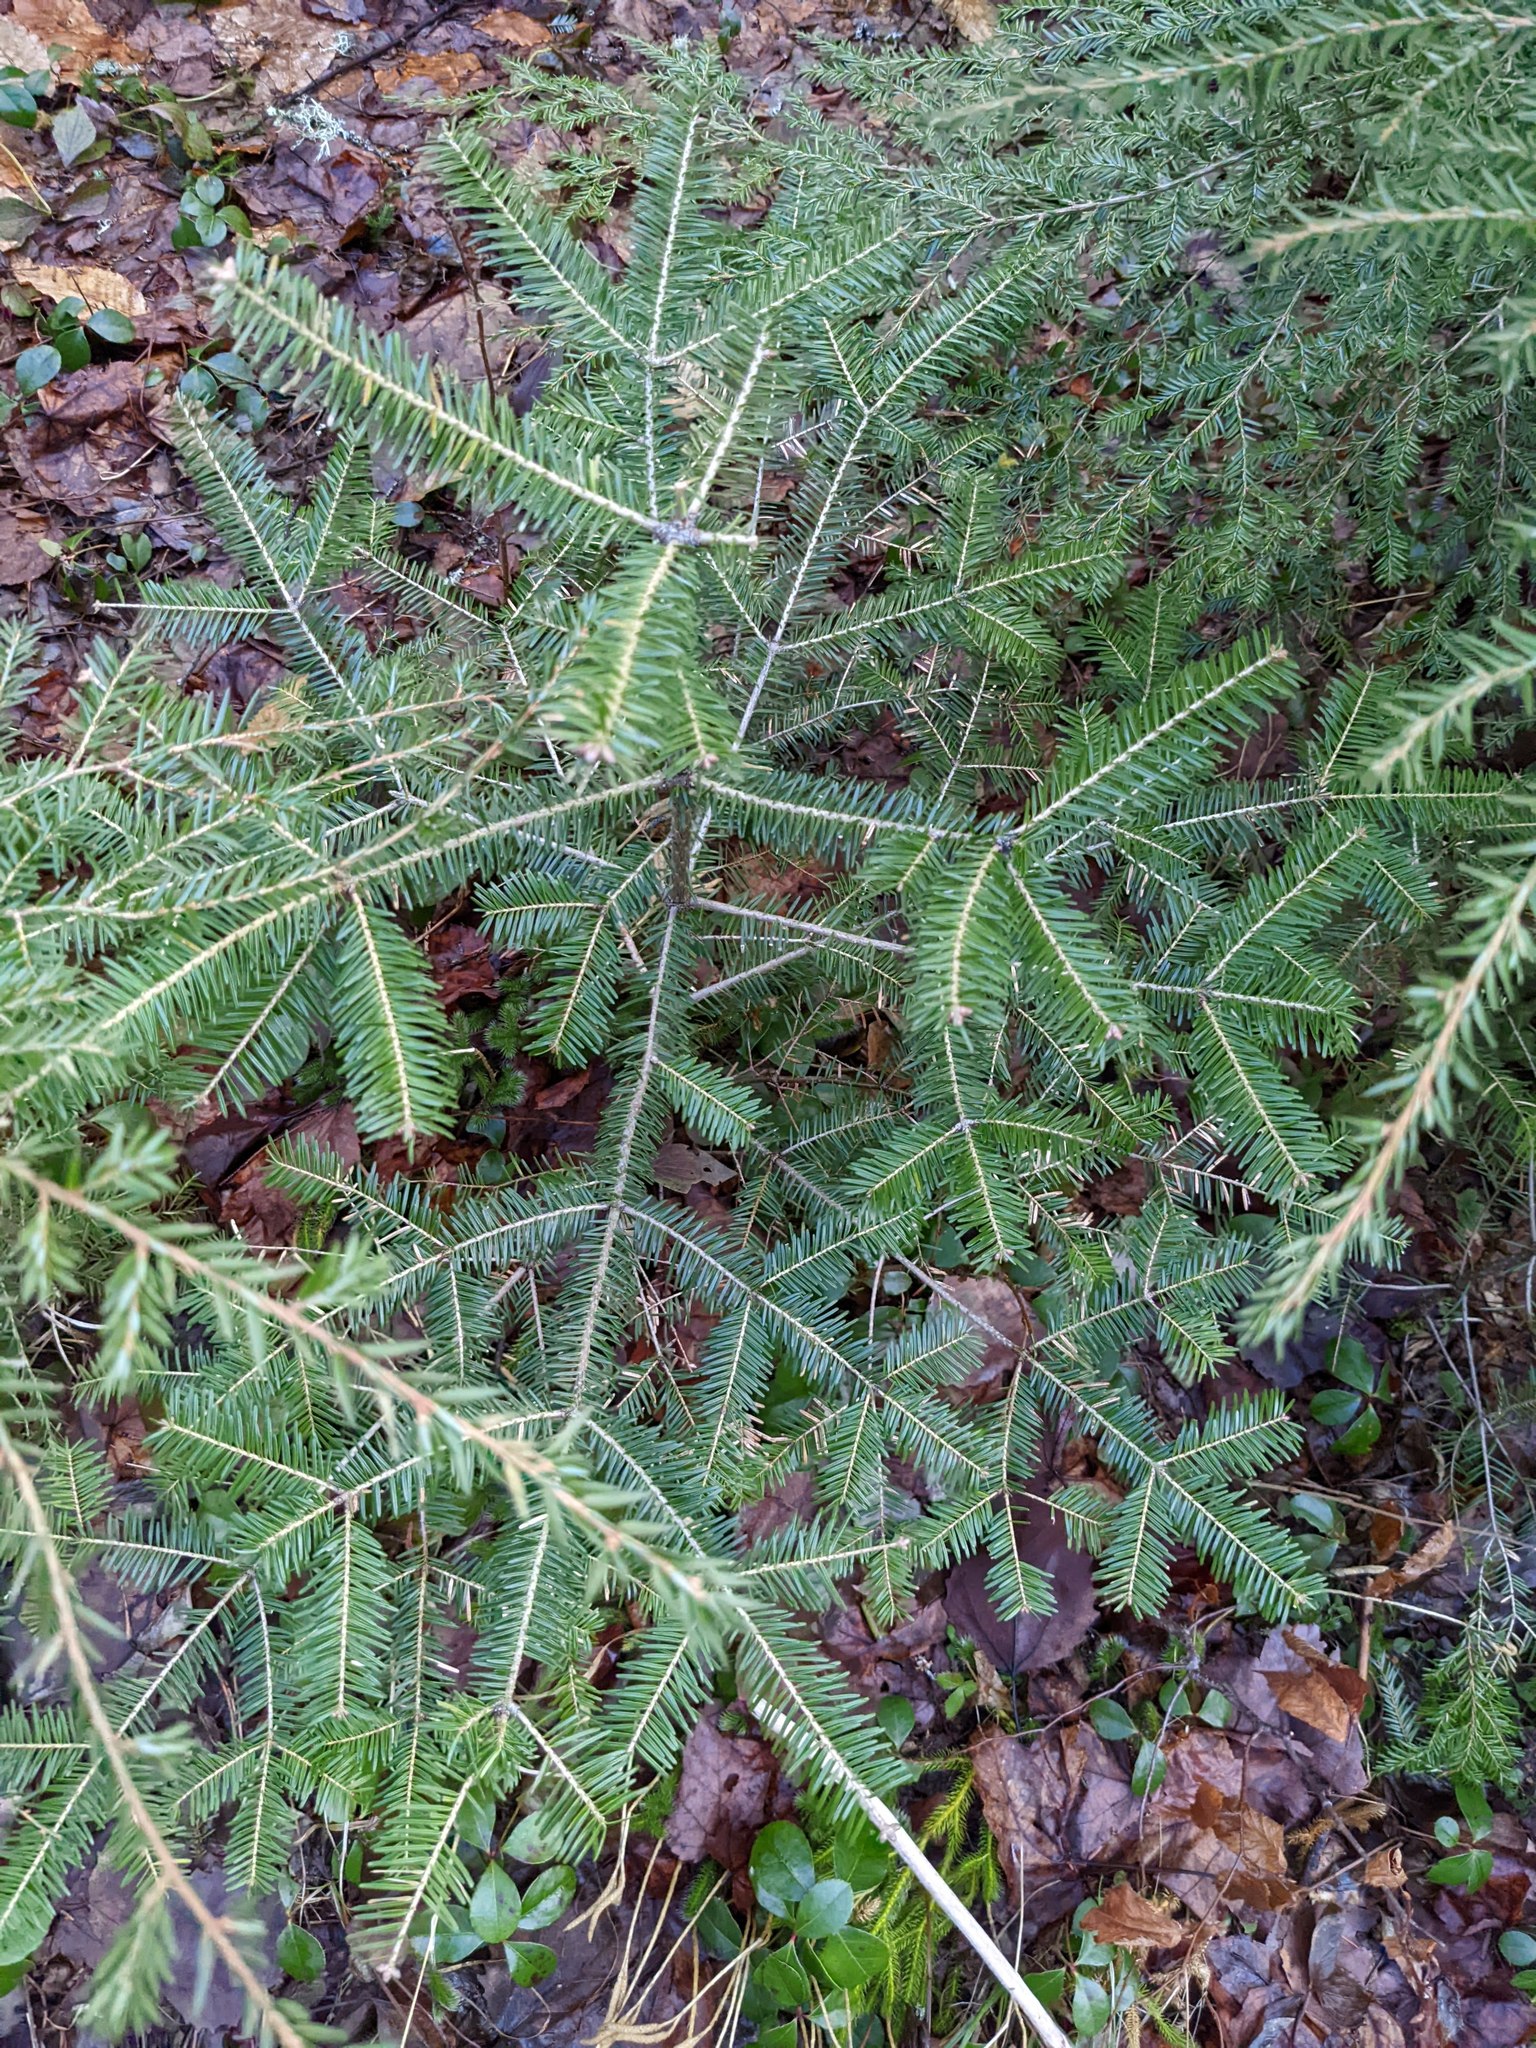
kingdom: Plantae
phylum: Tracheophyta
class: Pinopsida
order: Pinales
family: Pinaceae
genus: Abies
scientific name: Abies balsamea
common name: Balsam fir
